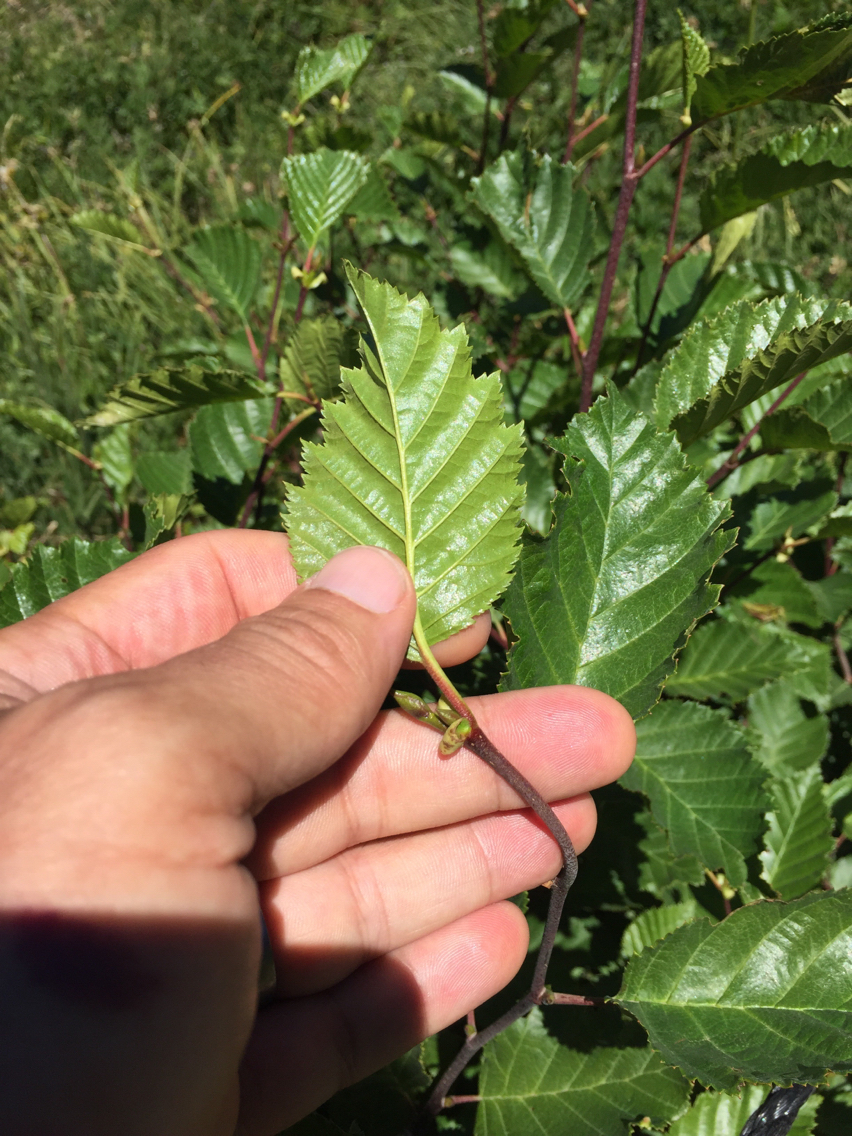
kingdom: Plantae
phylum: Tracheophyta
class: Magnoliopsida
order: Fagales
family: Betulaceae
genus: Alnus
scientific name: Alnus alnobetula
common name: Green alder
